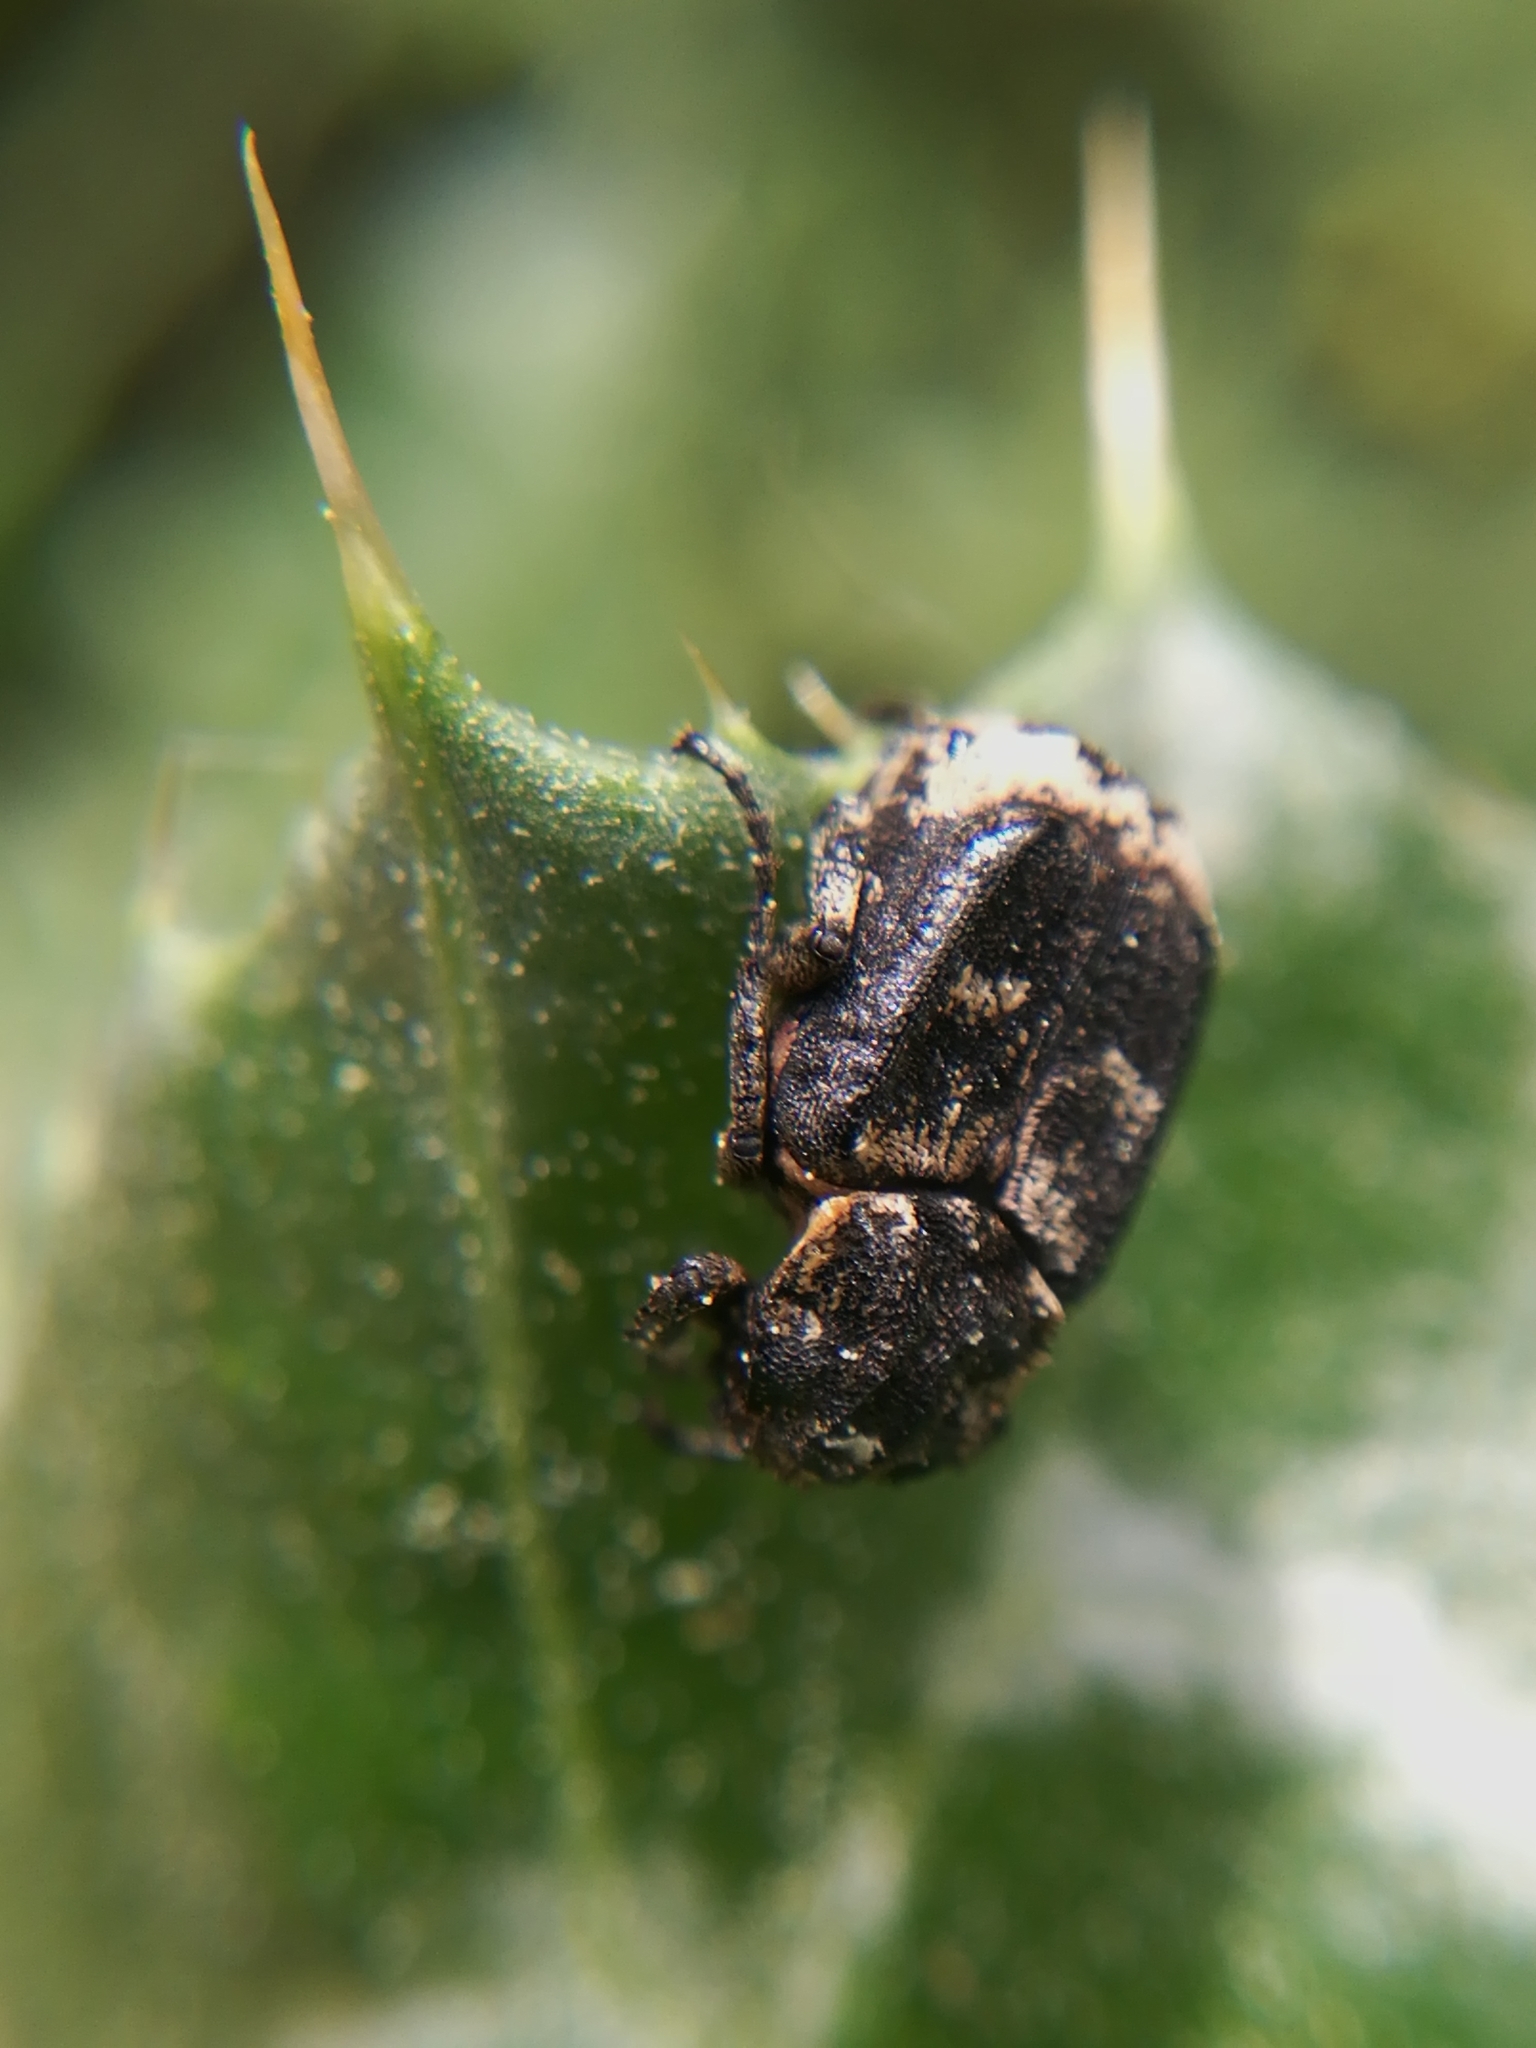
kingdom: Animalia
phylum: Arthropoda
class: Insecta
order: Coleoptera
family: Scarabaeidae
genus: Valgus
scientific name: Valgus hemipterus
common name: Bug flower chafer
